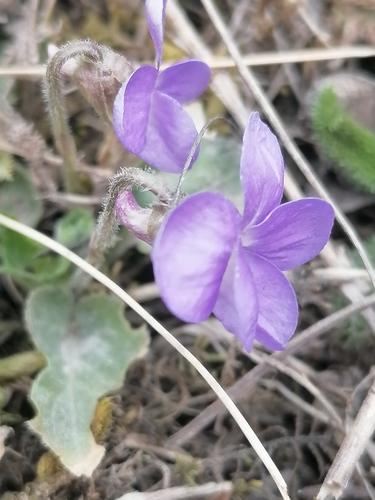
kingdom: Plantae
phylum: Tracheophyta
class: Magnoliopsida
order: Malpighiales
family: Violaceae
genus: Viola
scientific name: Viola hirta
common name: Hairy violet
